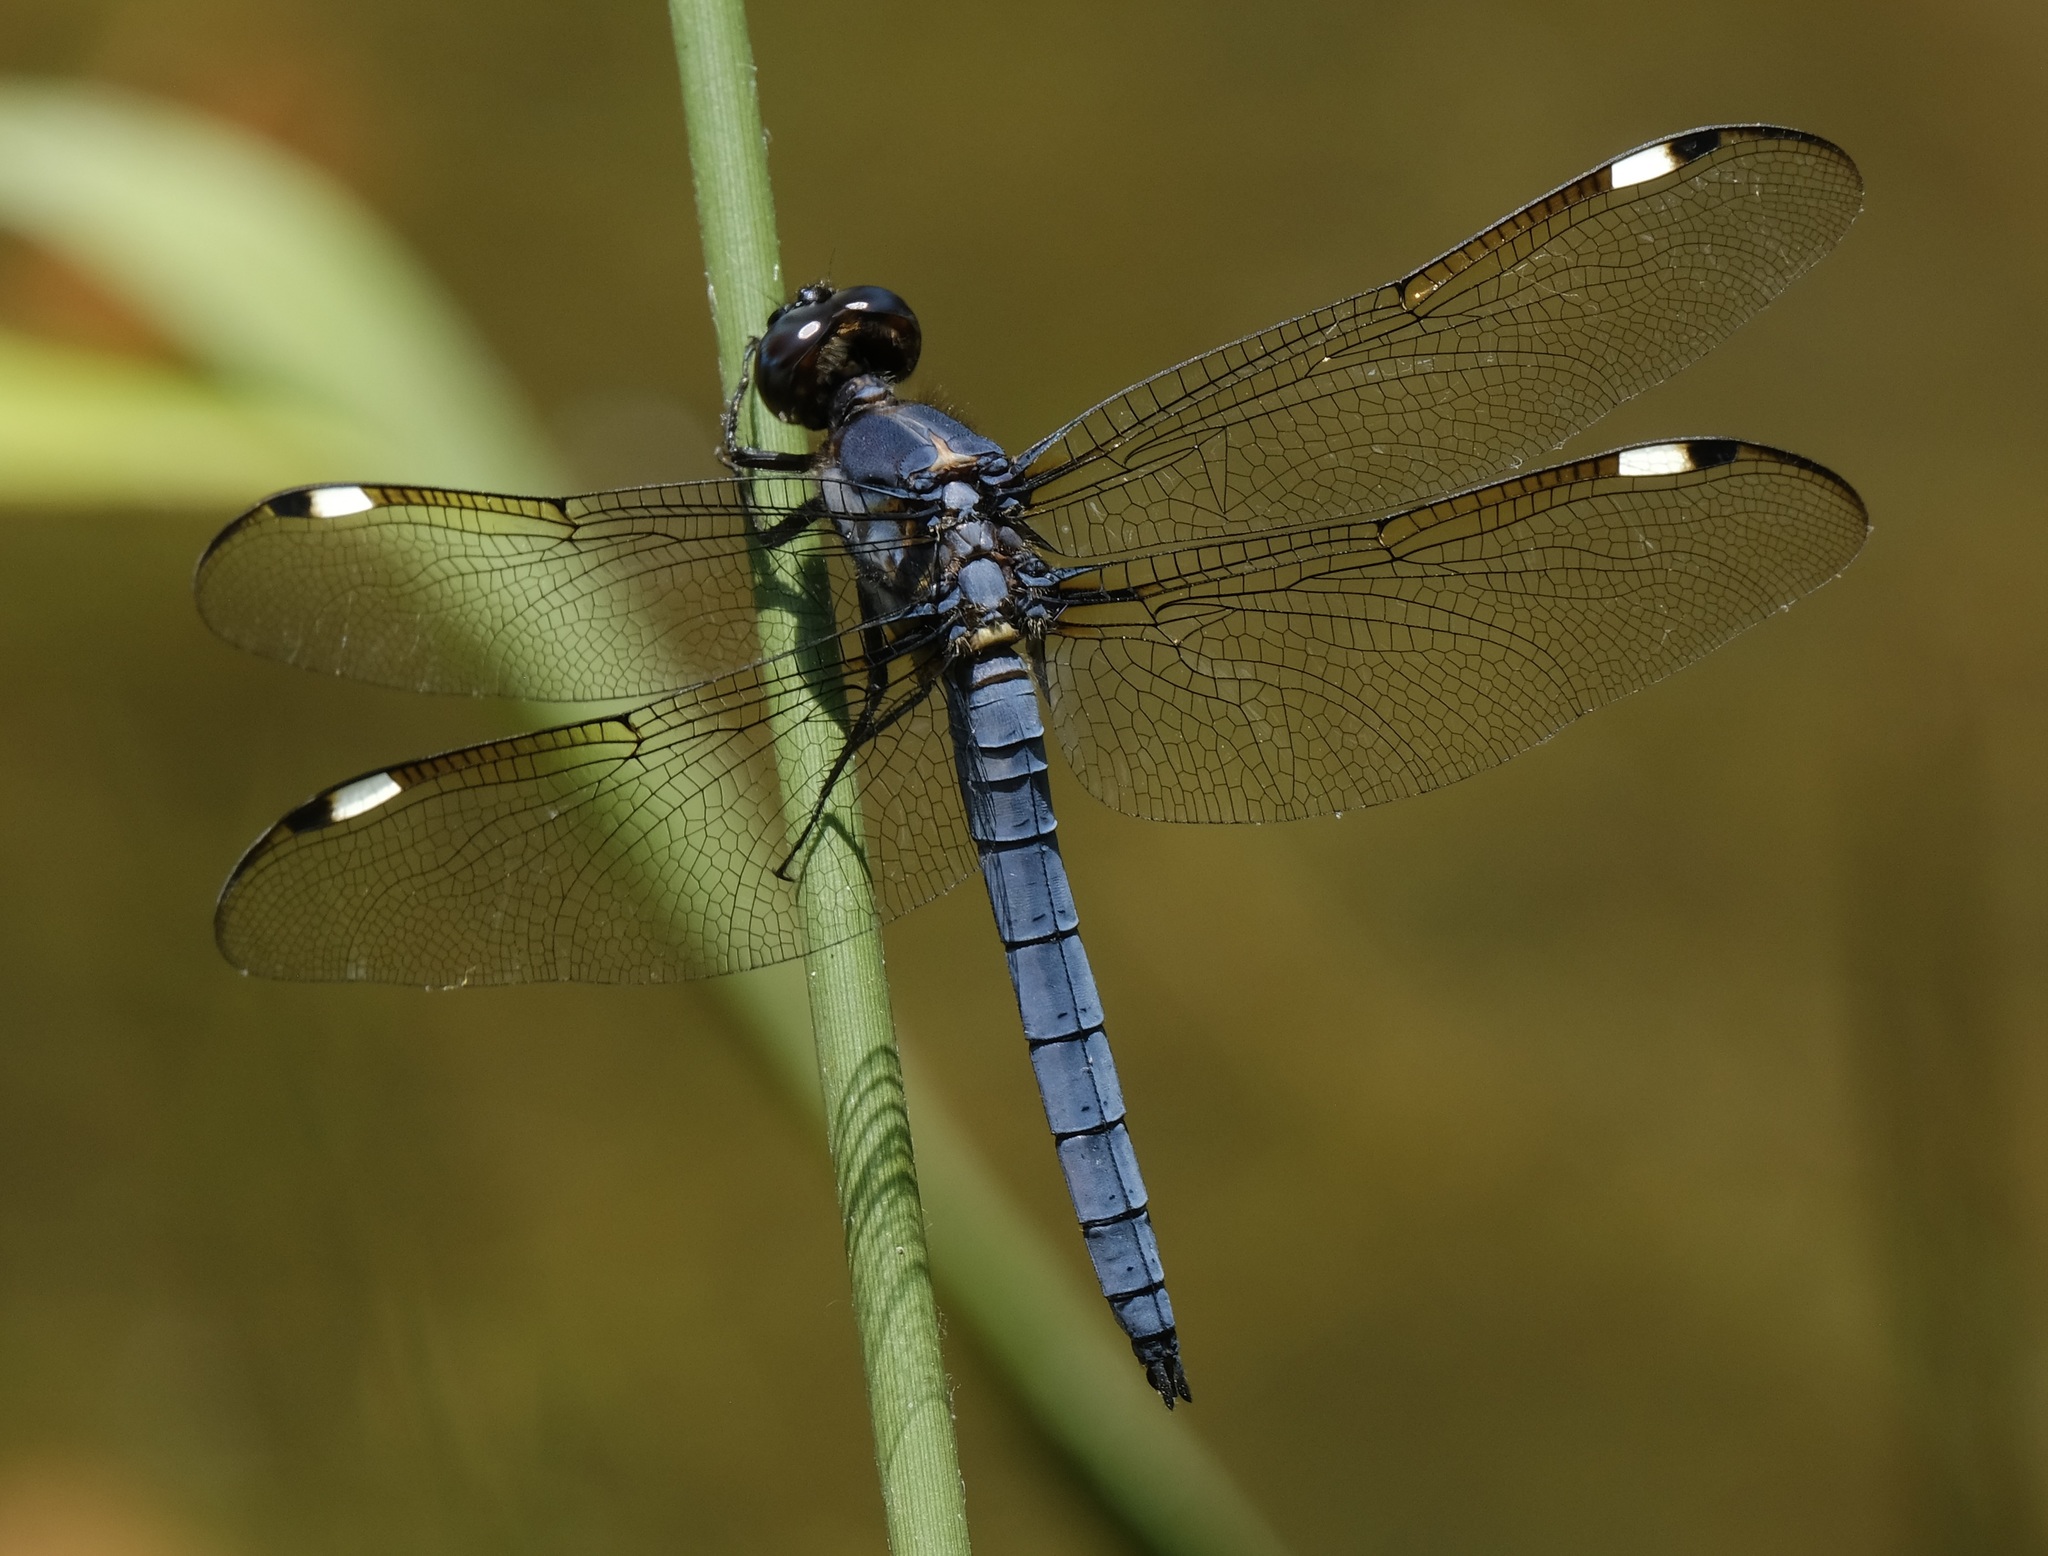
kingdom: Animalia
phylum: Arthropoda
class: Insecta
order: Odonata
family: Libellulidae
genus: Libellula
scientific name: Libellula cyanea
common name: Spangled skimmer
